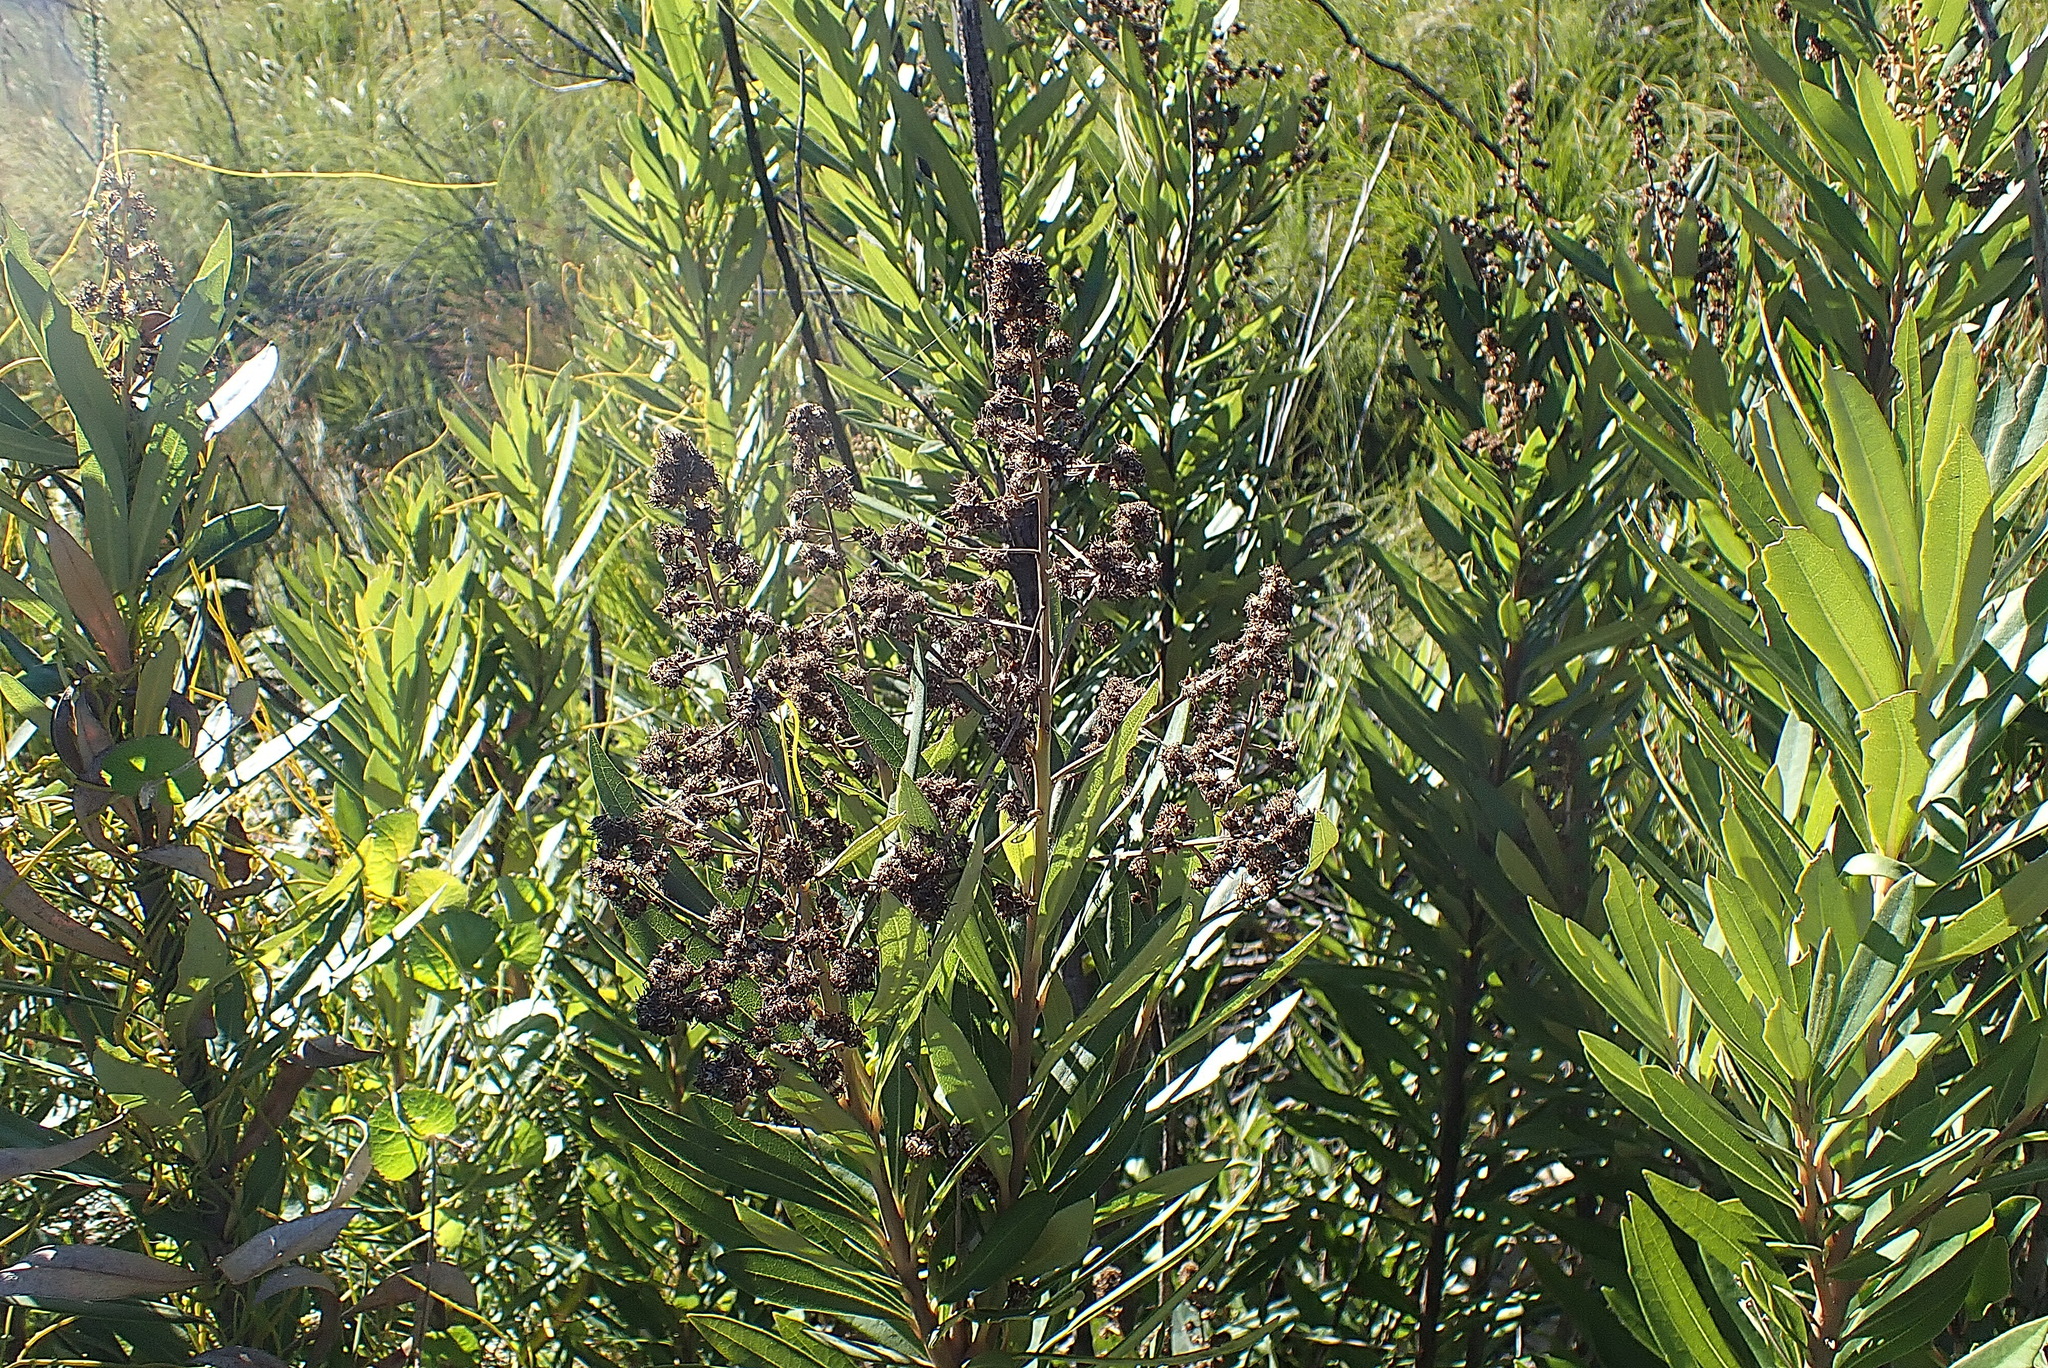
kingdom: Plantae
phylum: Tracheophyta
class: Magnoliopsida
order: Asterales
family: Asteraceae
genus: Brachylaena
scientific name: Brachylaena neriifolia
